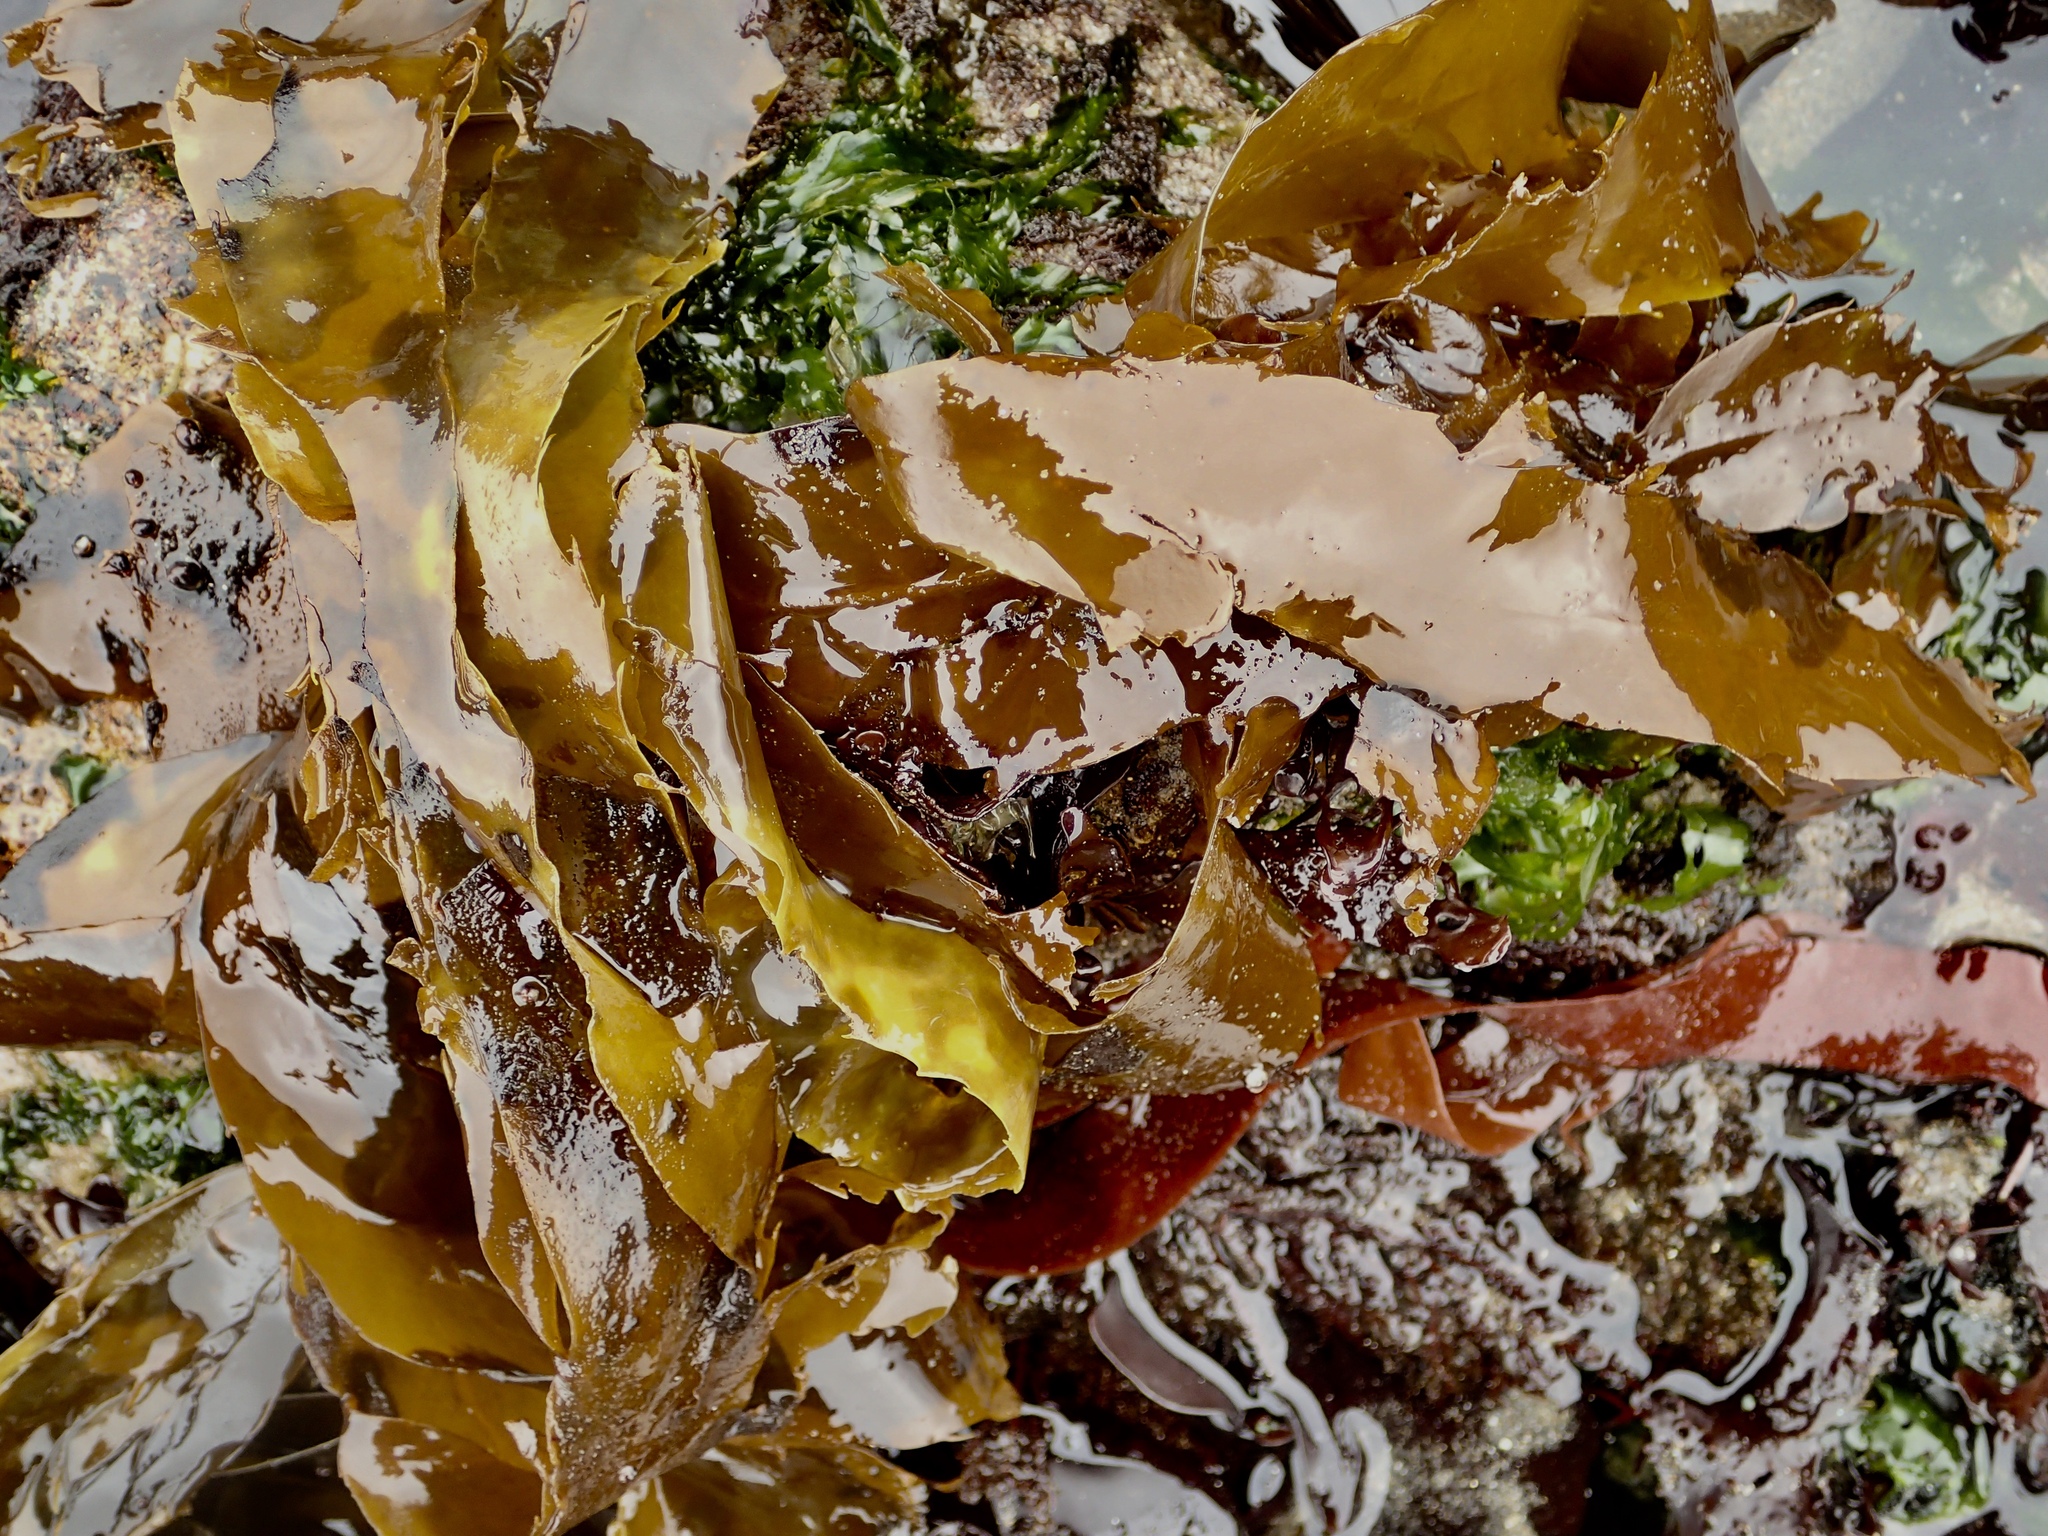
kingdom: Chromista
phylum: Ochrophyta
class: Phaeophyceae
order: Desmarestiales
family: Desmarestiaceae
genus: Desmarestia
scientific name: Desmarestia ligulata
